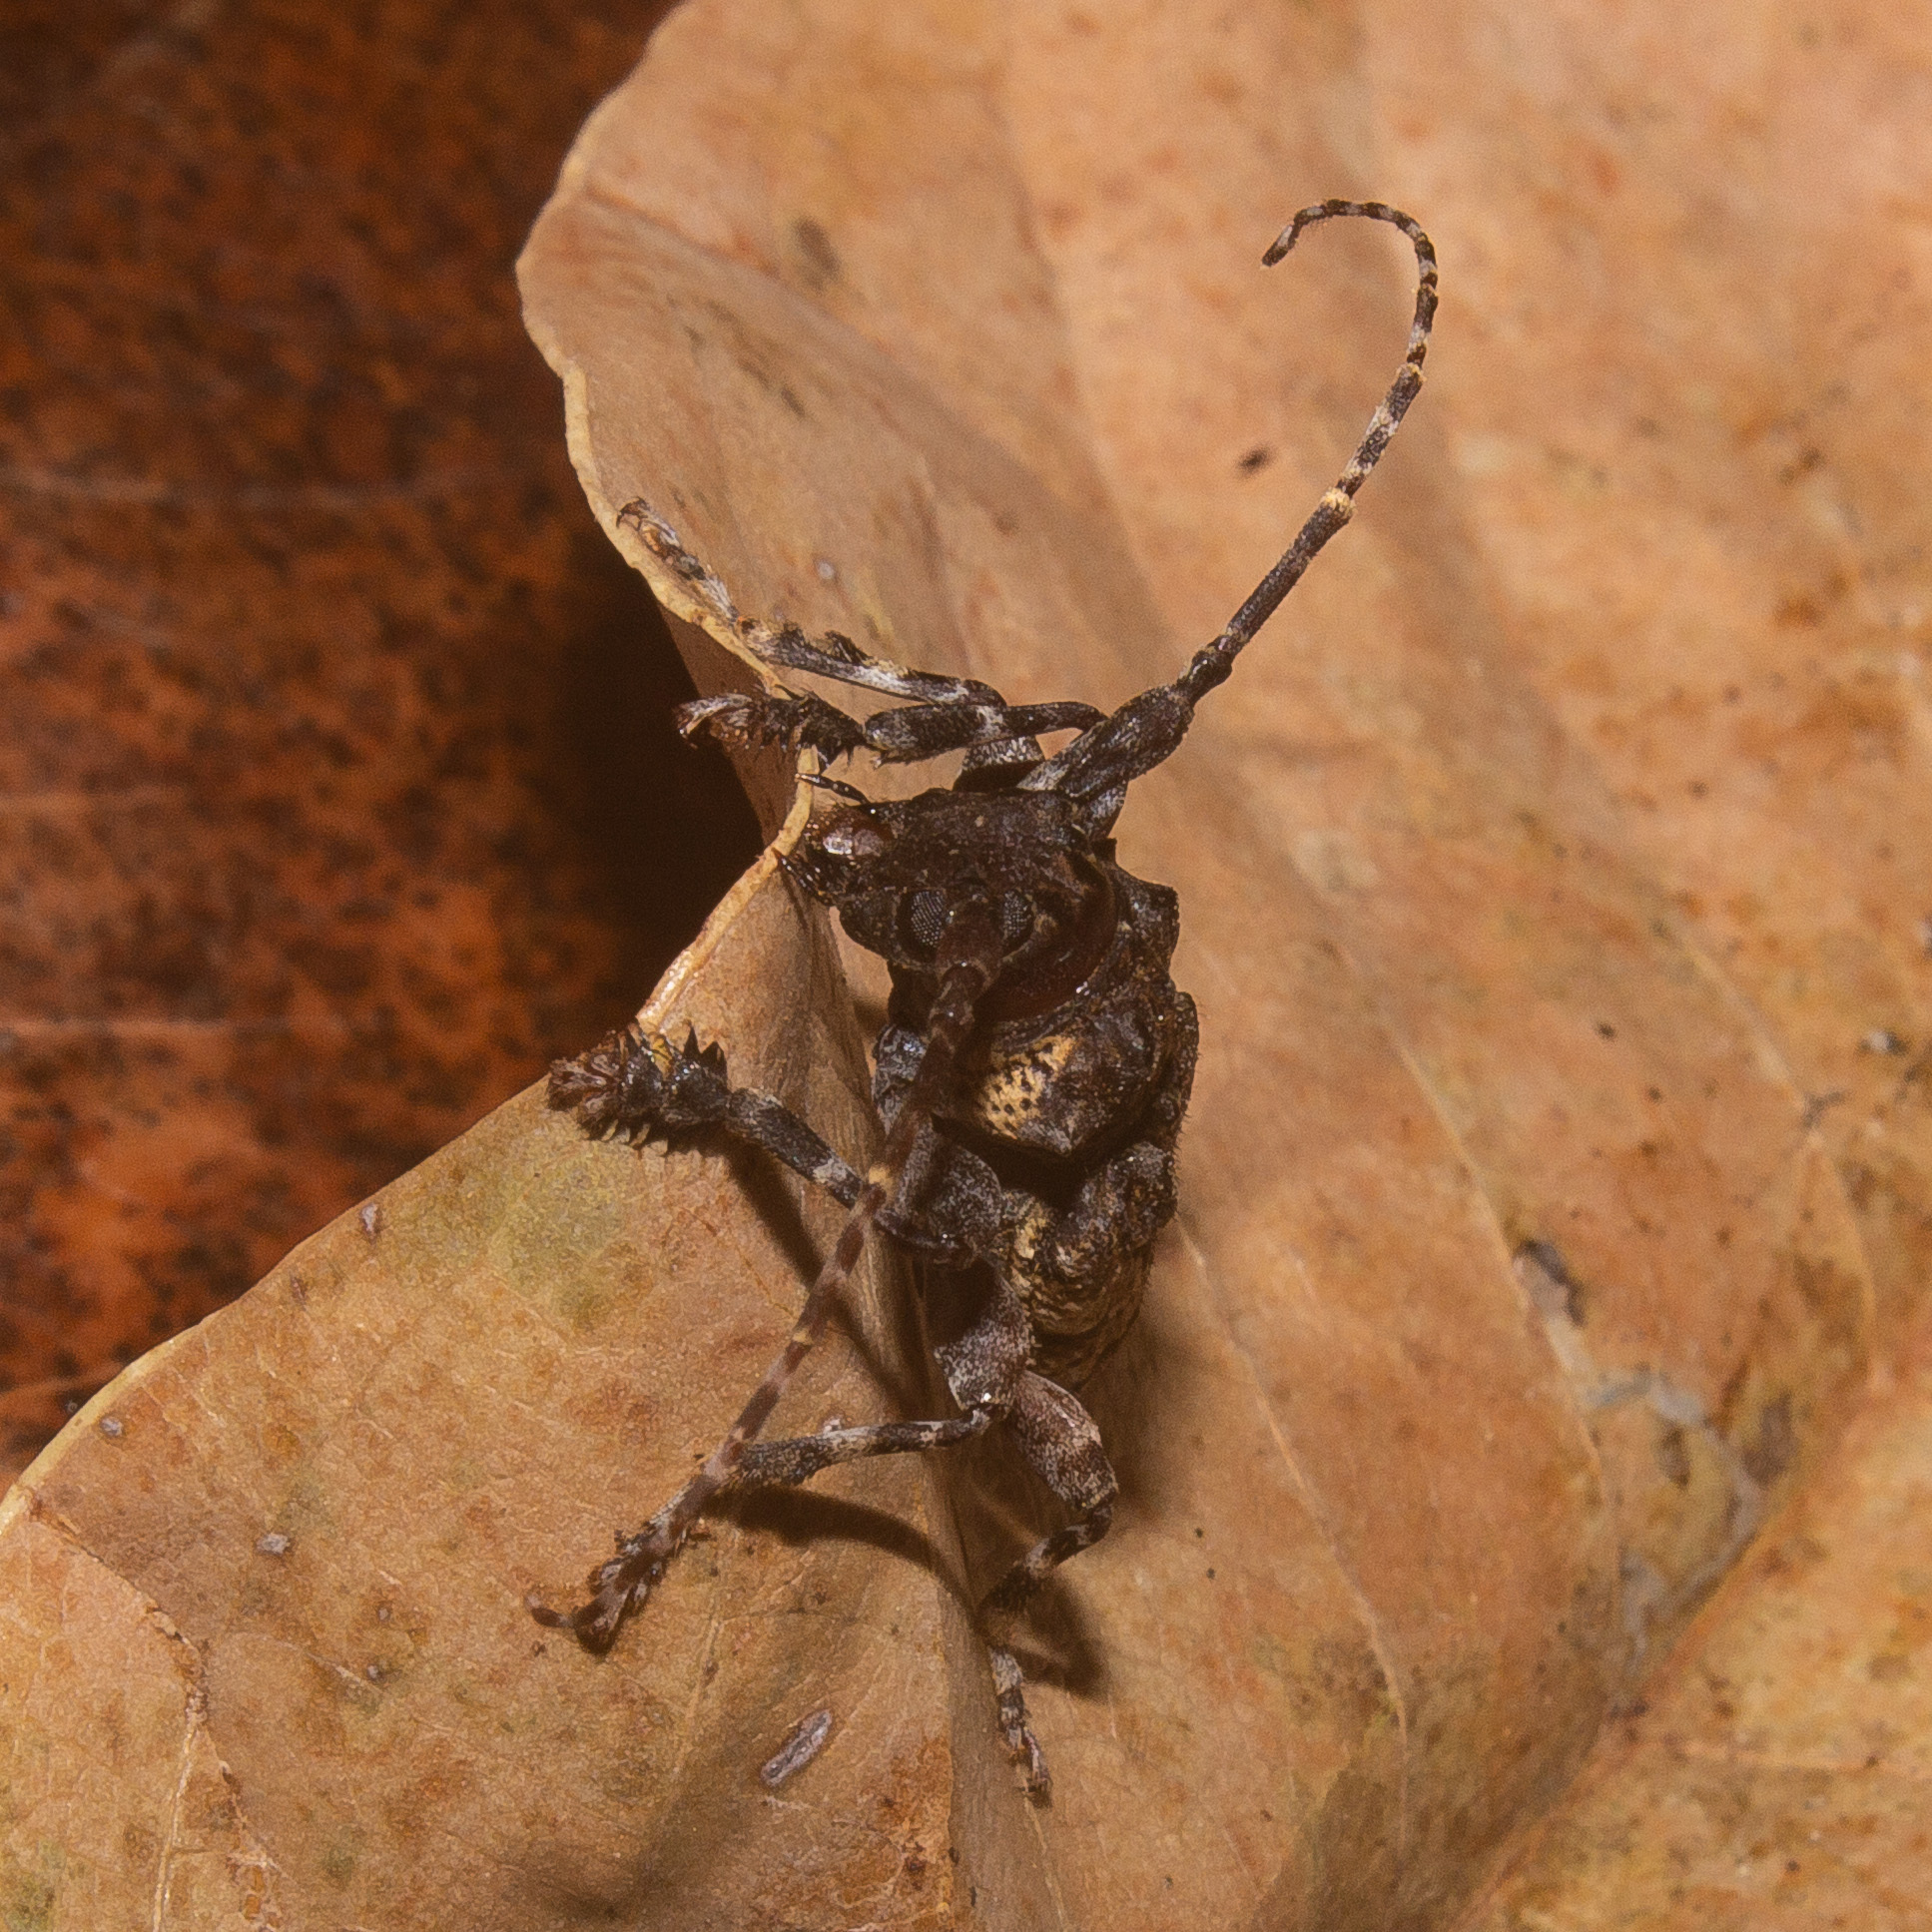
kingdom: Animalia
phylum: Arthropoda
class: Insecta
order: Coleoptera
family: Cerambycidae
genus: Psapharochrus
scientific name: Psapharochrus circumflexus
